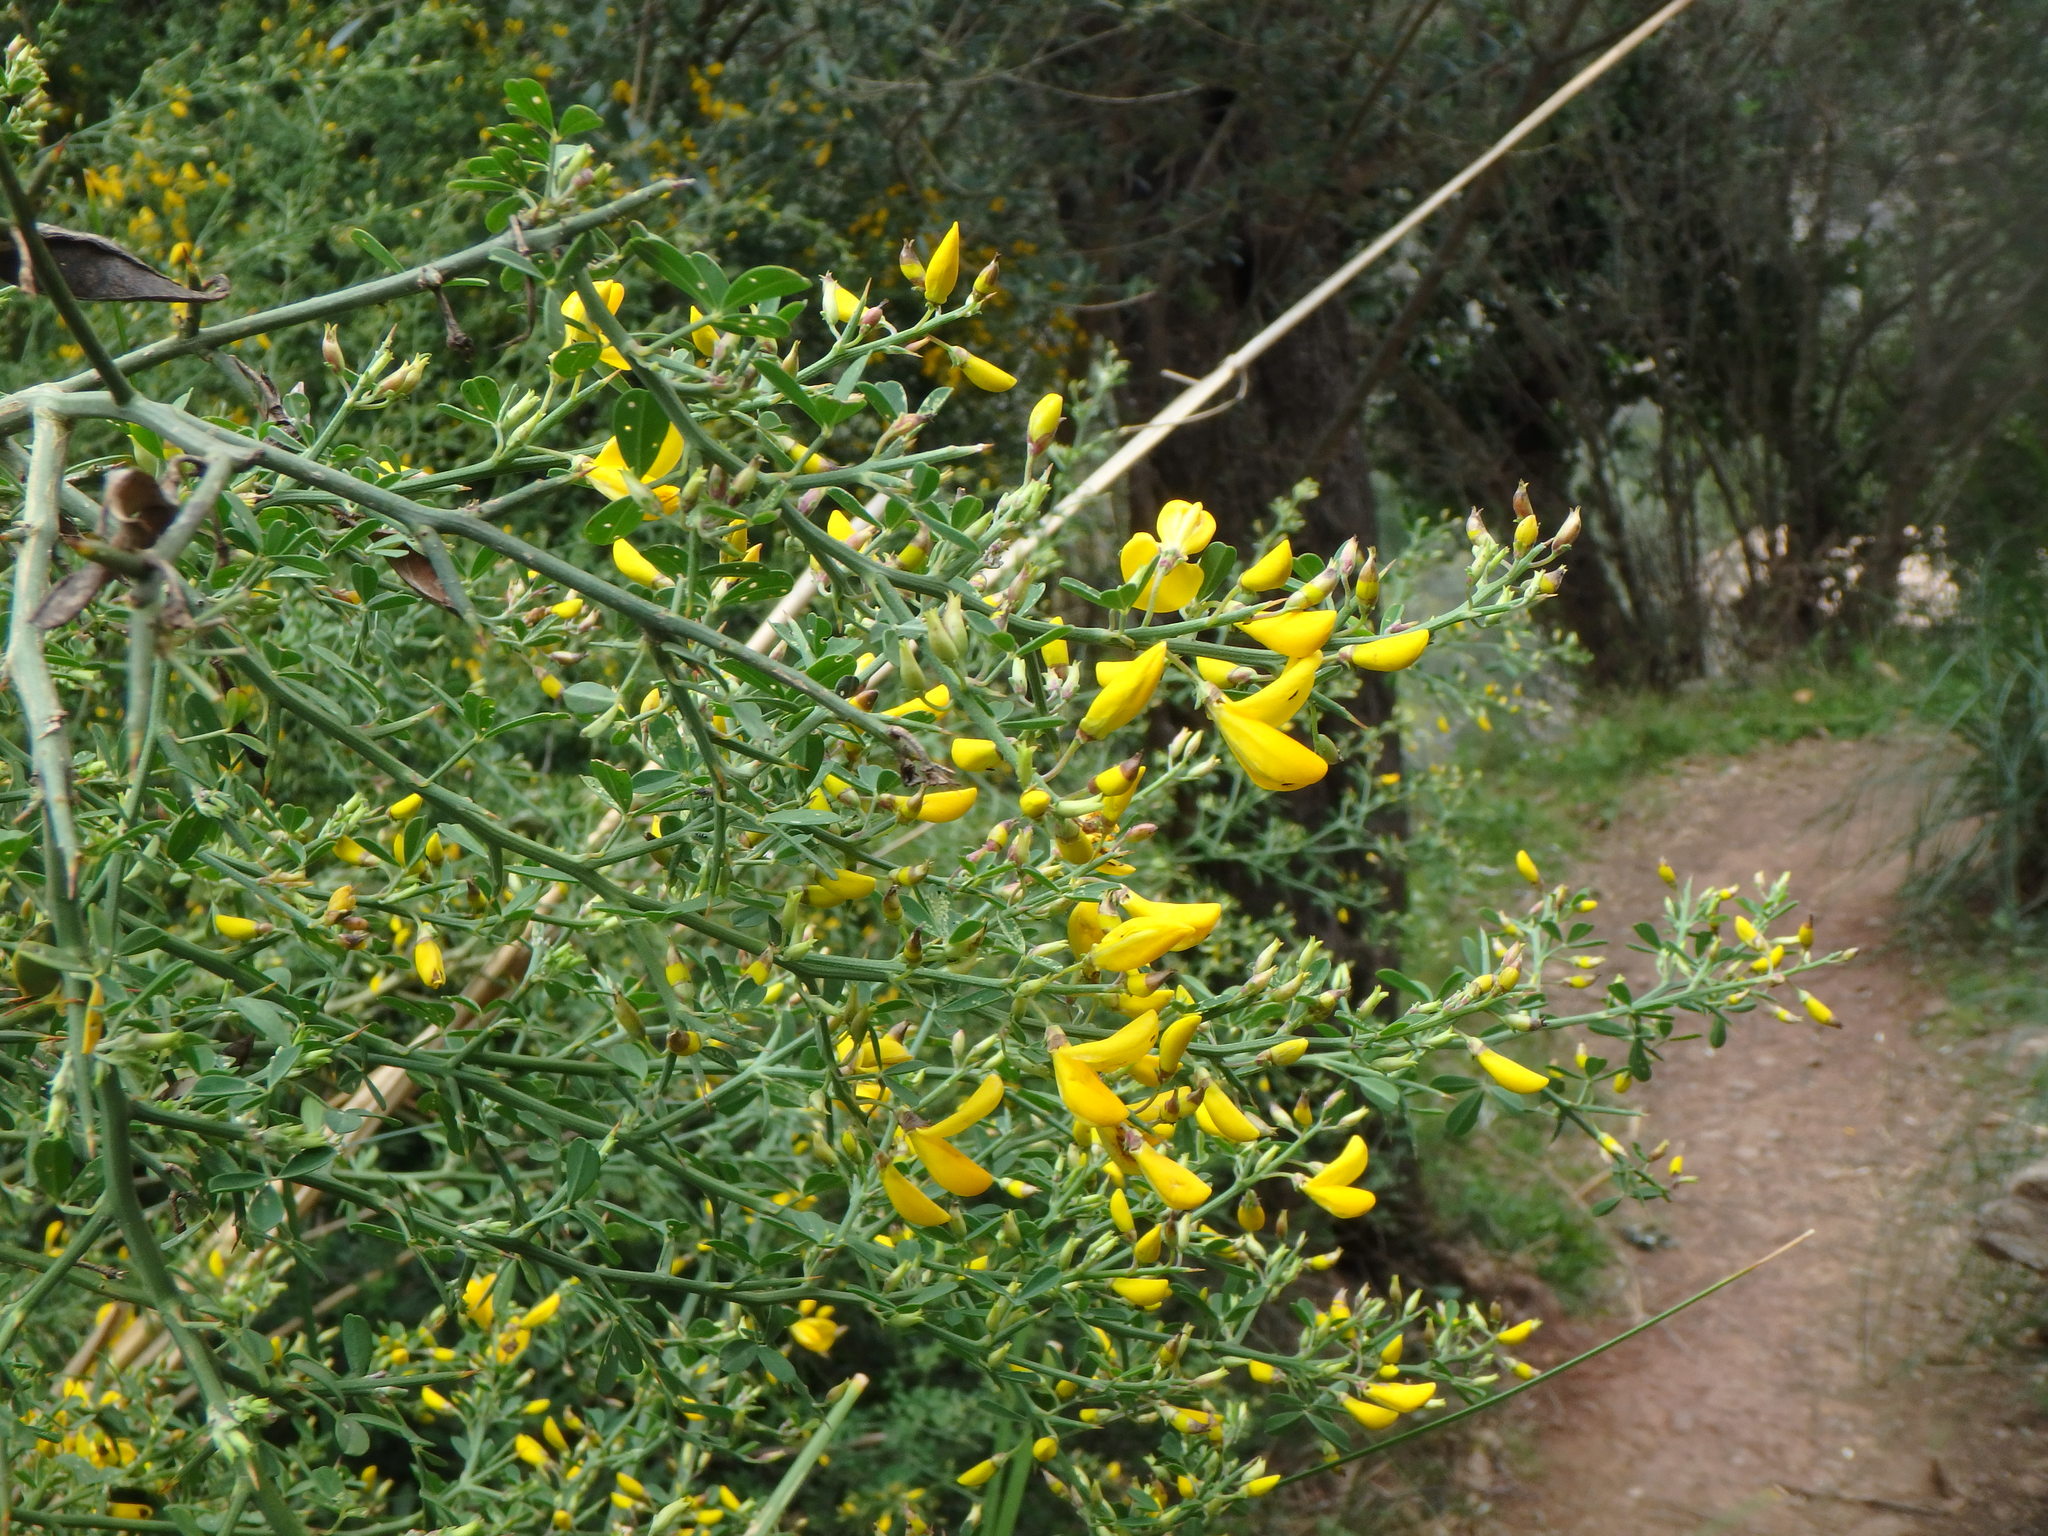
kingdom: Plantae
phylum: Tracheophyta
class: Magnoliopsida
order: Fabales
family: Fabaceae
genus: Calicotome
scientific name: Calicotome spinosa
